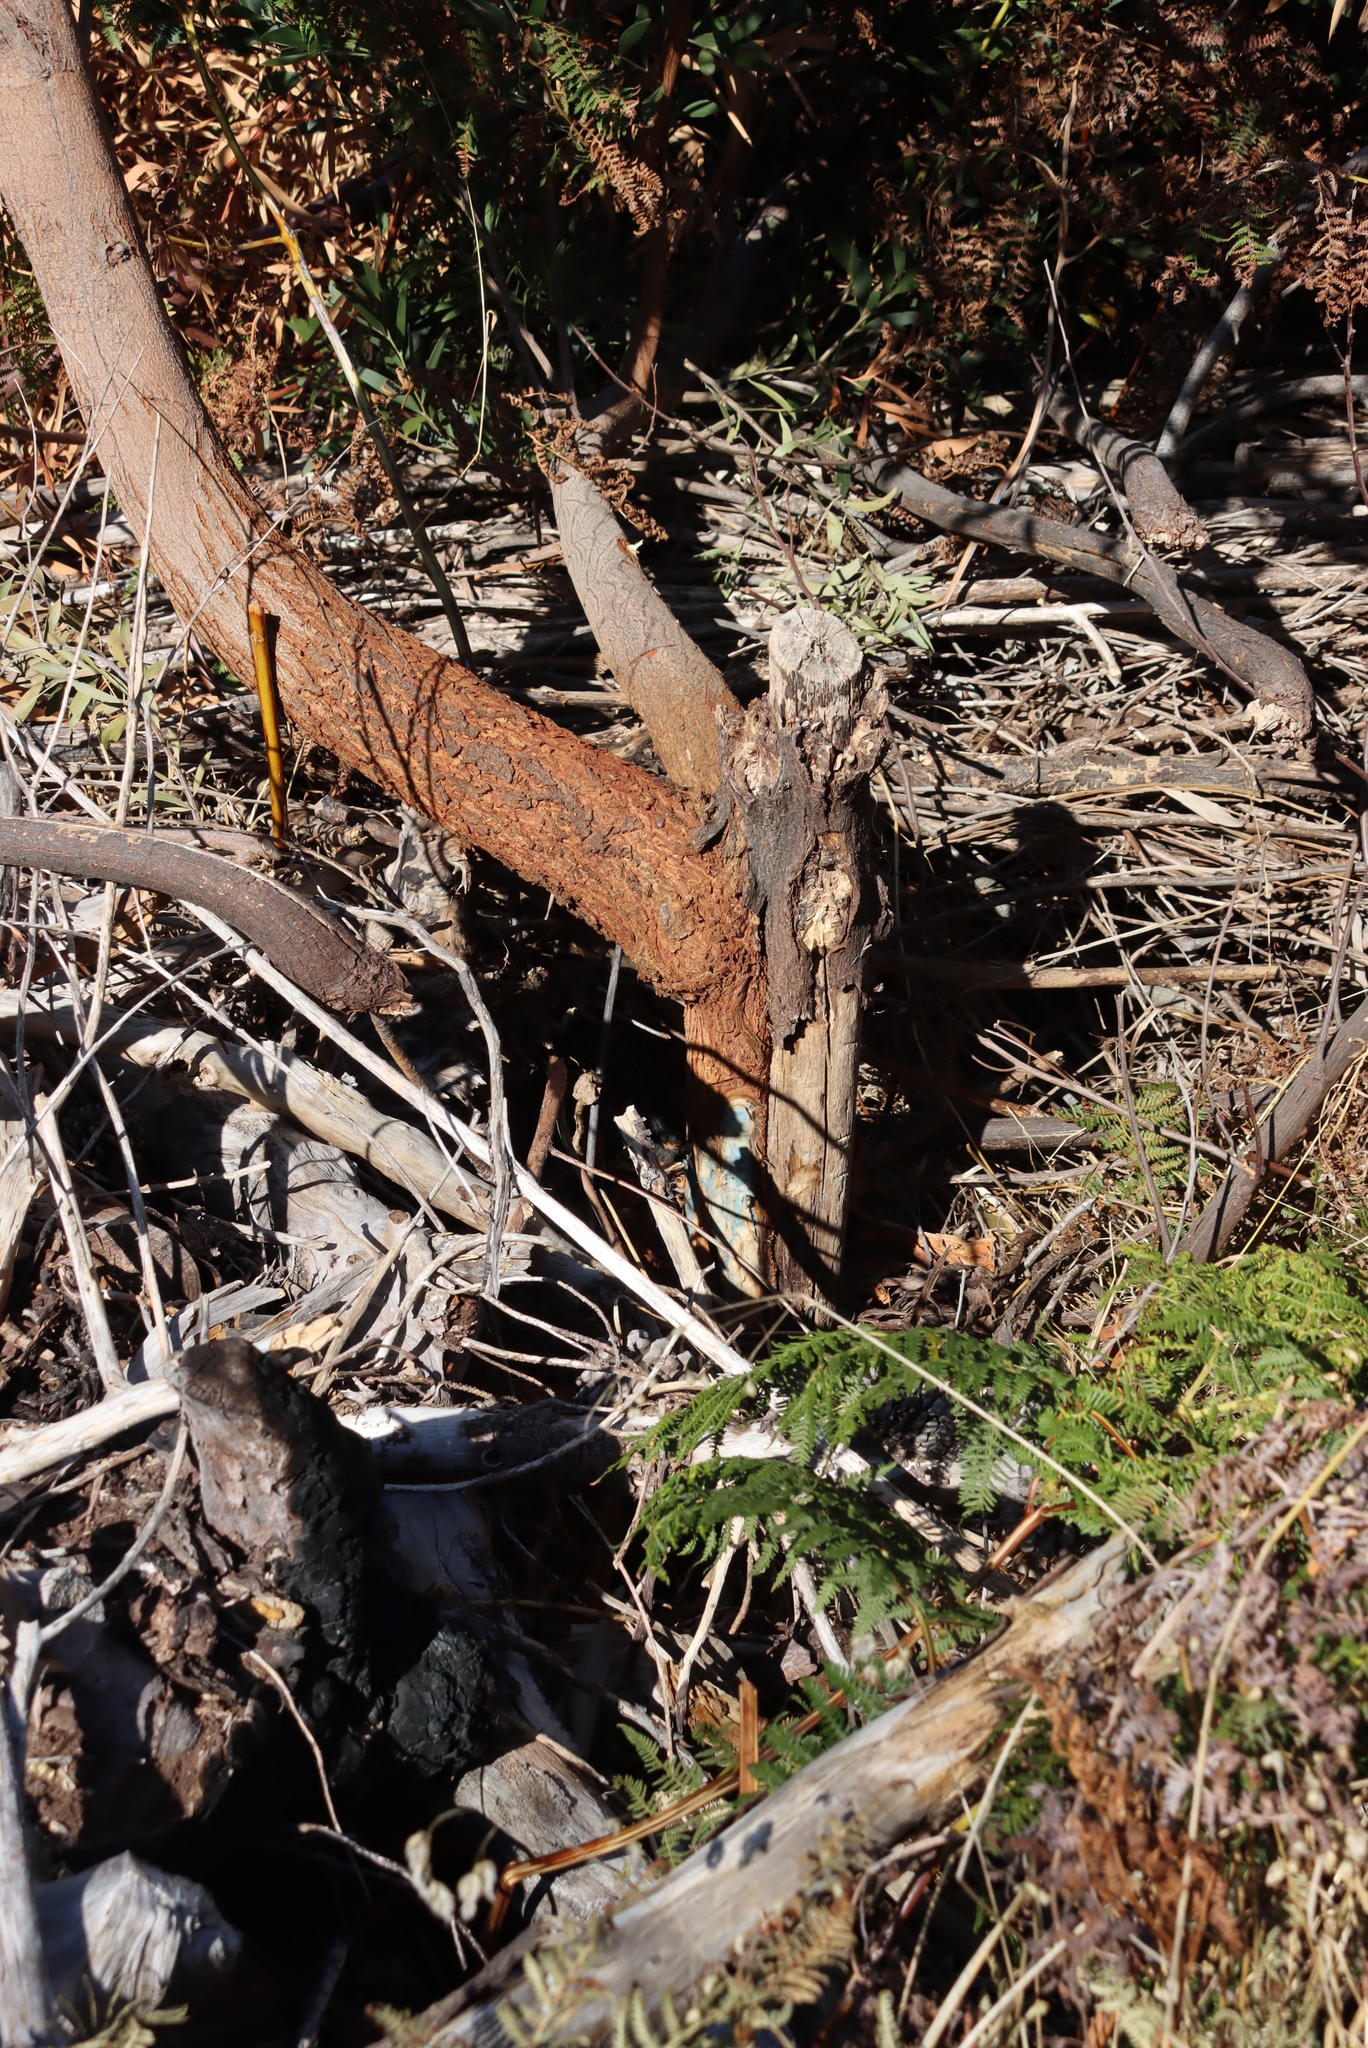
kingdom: Plantae
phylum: Tracheophyta
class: Magnoliopsida
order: Fabales
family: Fabaceae
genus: Acacia
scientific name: Acacia melanoxylon
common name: Blackwood
